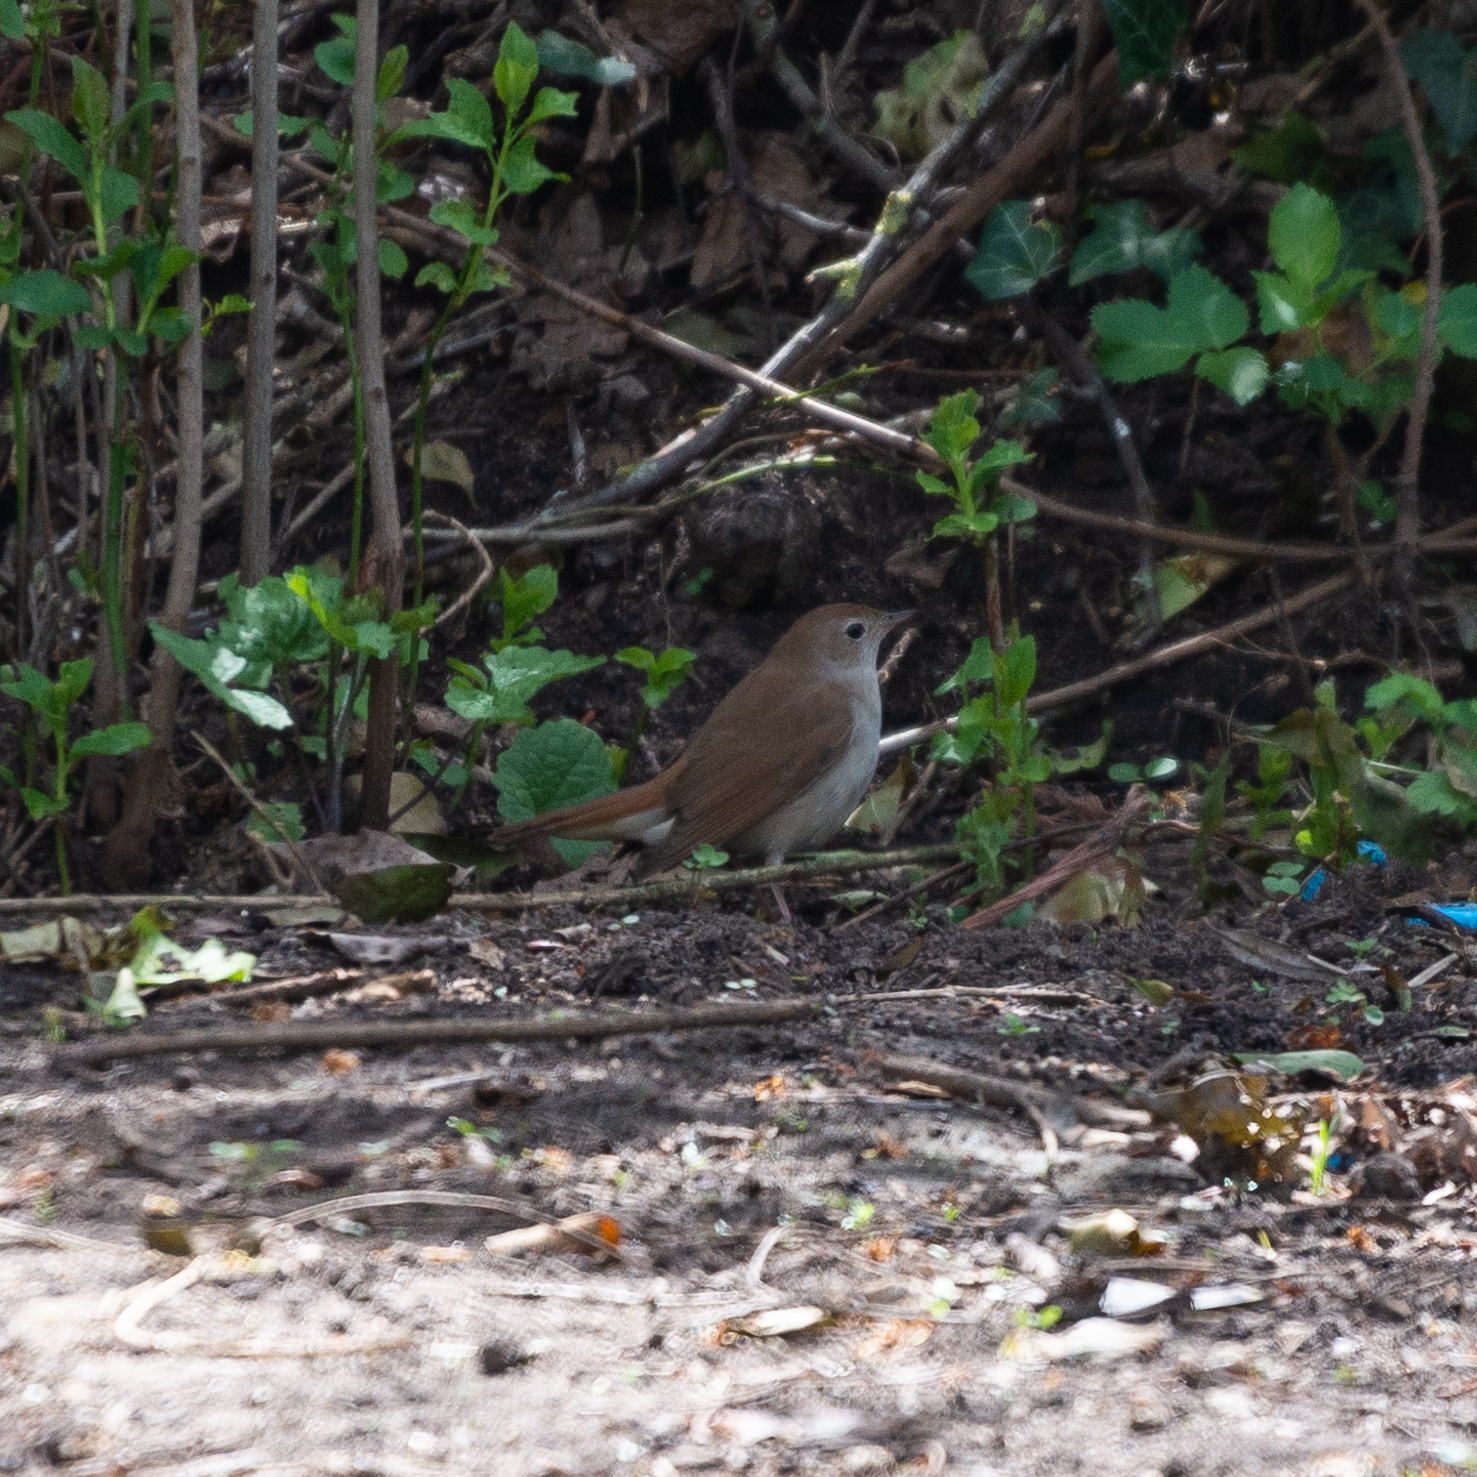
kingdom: Animalia
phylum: Chordata
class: Aves
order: Passeriformes
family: Muscicapidae
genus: Luscinia
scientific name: Luscinia megarhynchos
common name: Common nightingale
